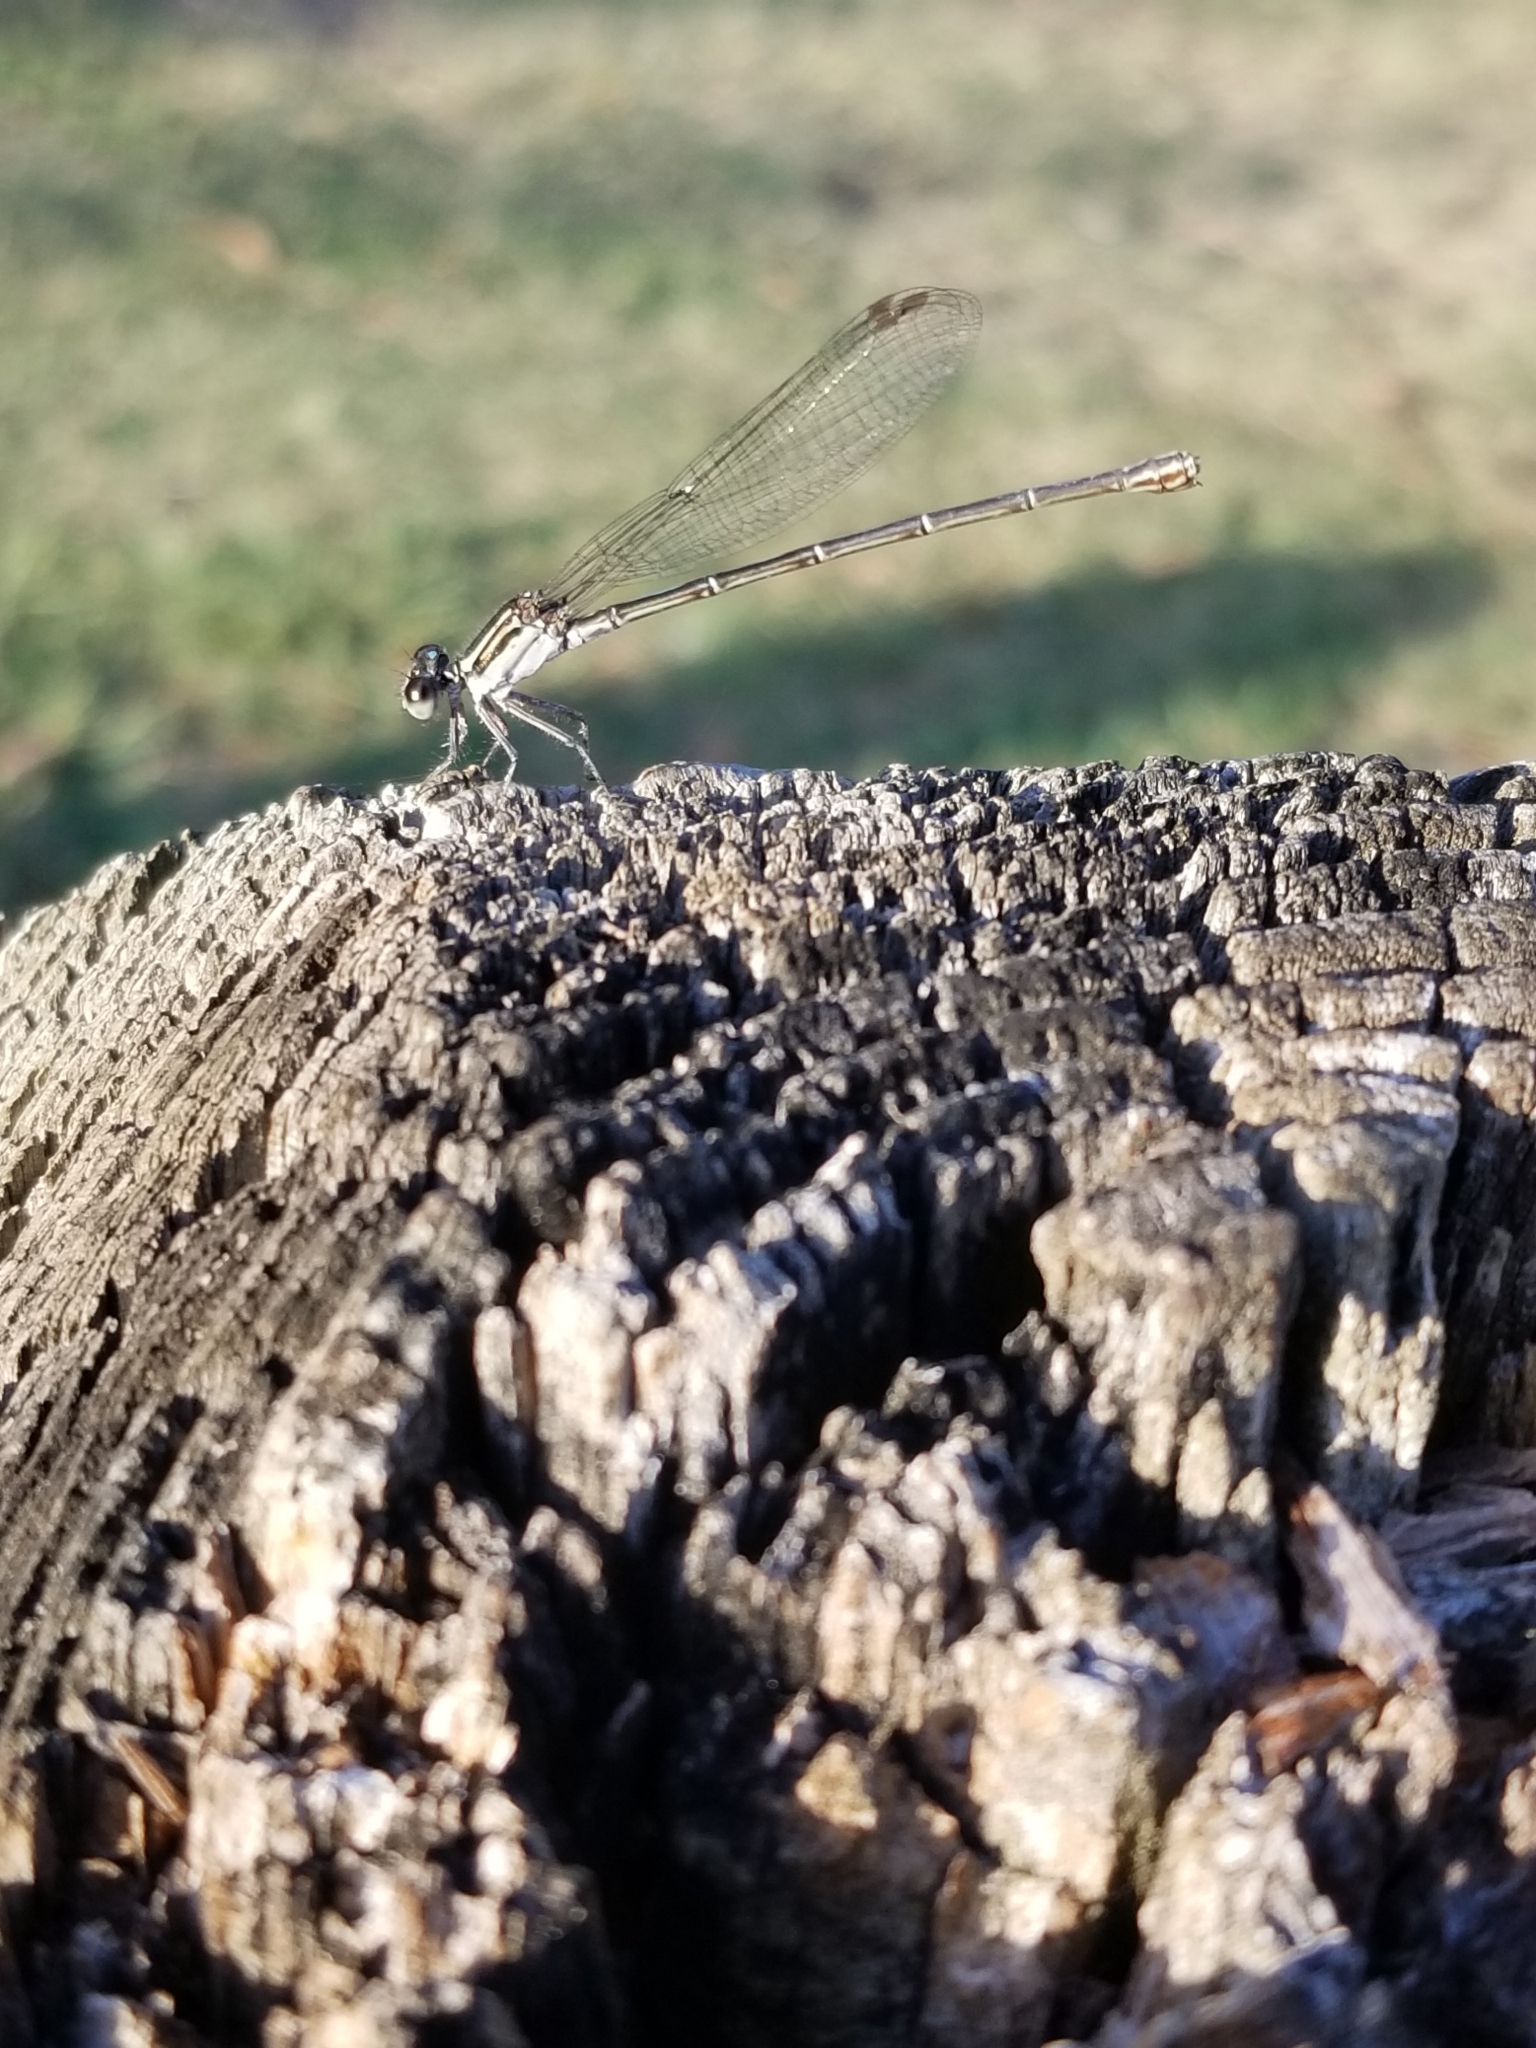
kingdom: Animalia
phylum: Arthropoda
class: Insecta
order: Odonata
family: Coenagrionidae
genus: Argia
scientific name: Argia translata
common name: Dusky dancer
